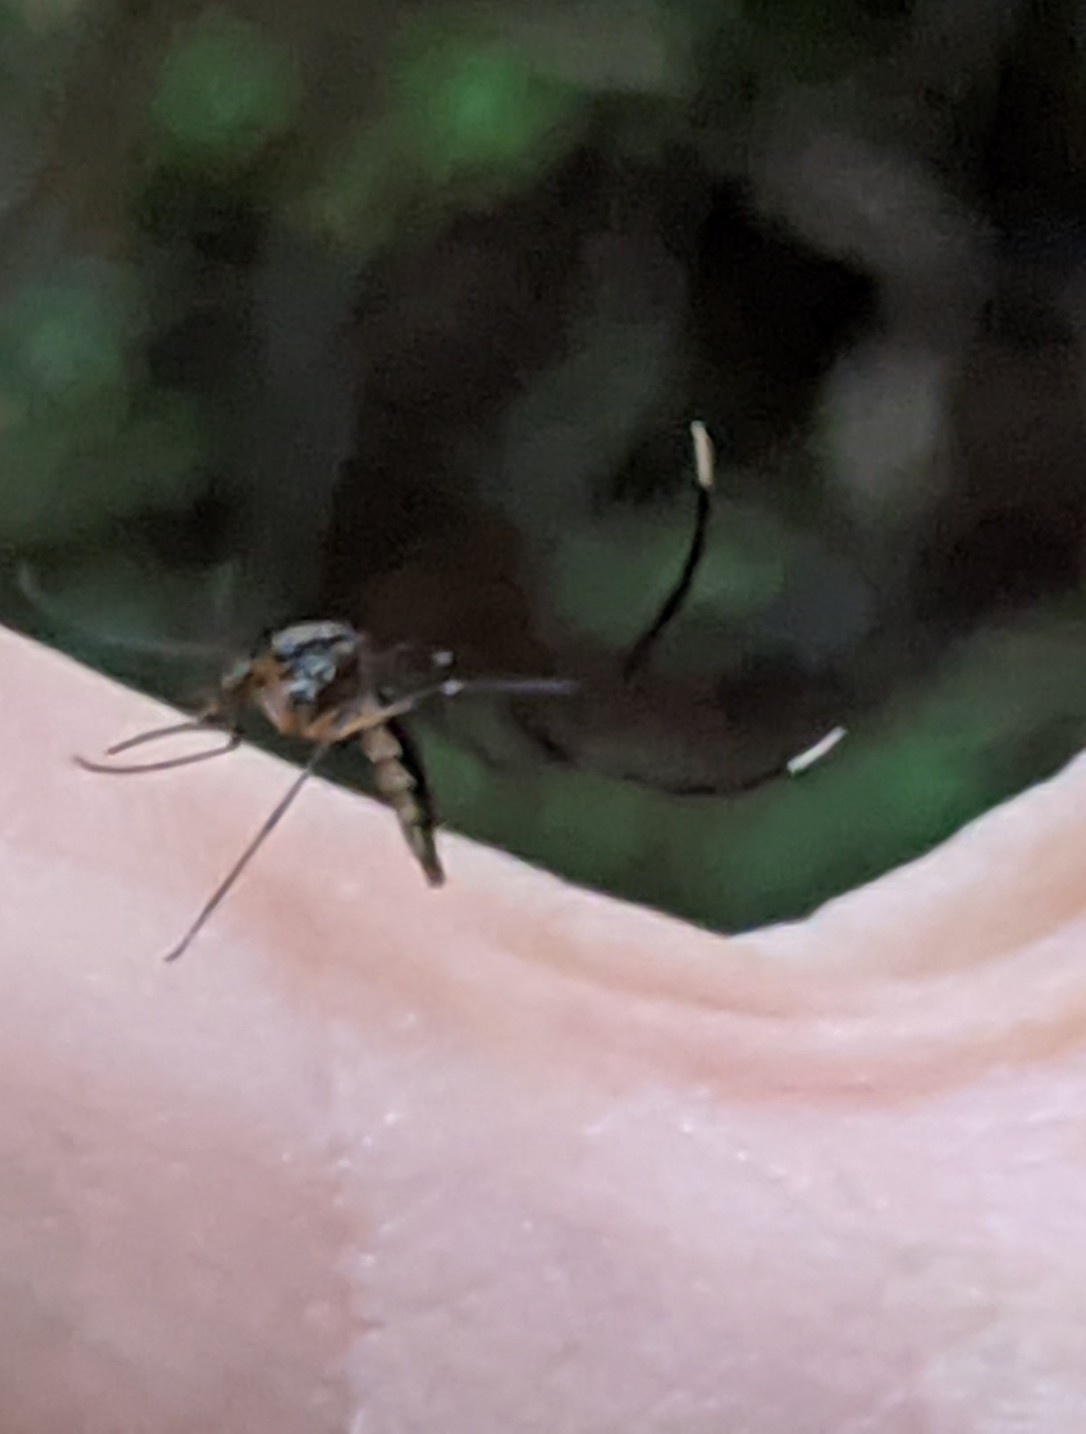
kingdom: Animalia
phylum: Arthropoda
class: Insecta
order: Diptera
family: Culicidae
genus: Psorophora
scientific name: Psorophora ferox
